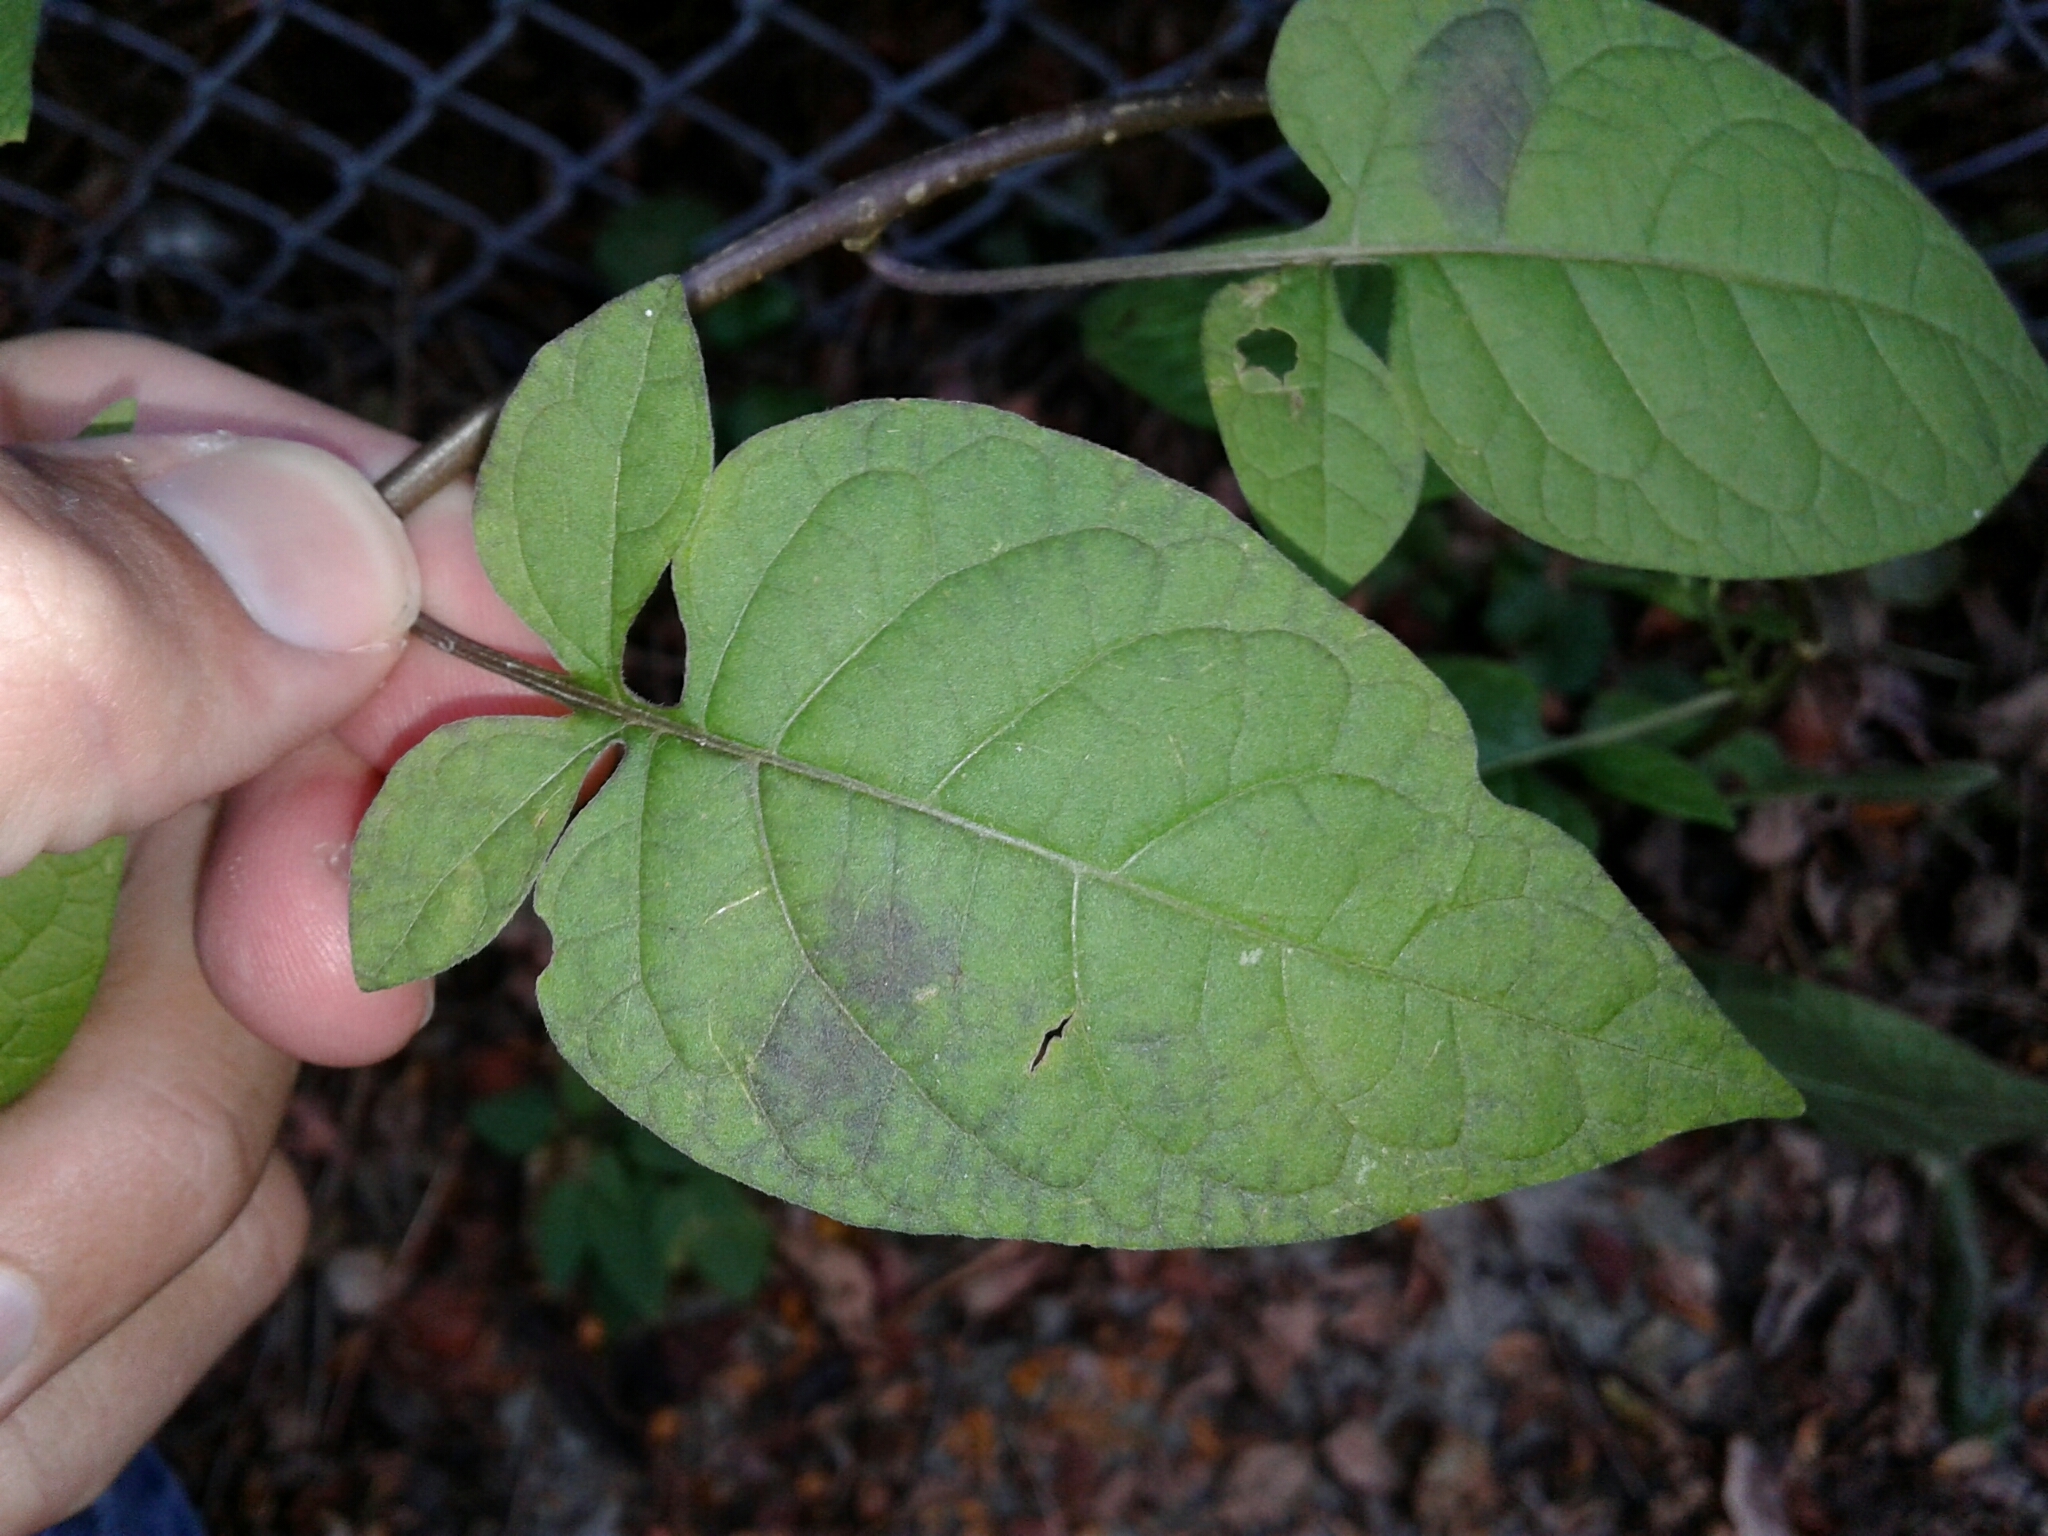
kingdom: Plantae
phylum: Tracheophyta
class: Magnoliopsida
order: Solanales
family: Solanaceae
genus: Solanum
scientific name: Solanum dulcamara
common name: Climbing nightshade
